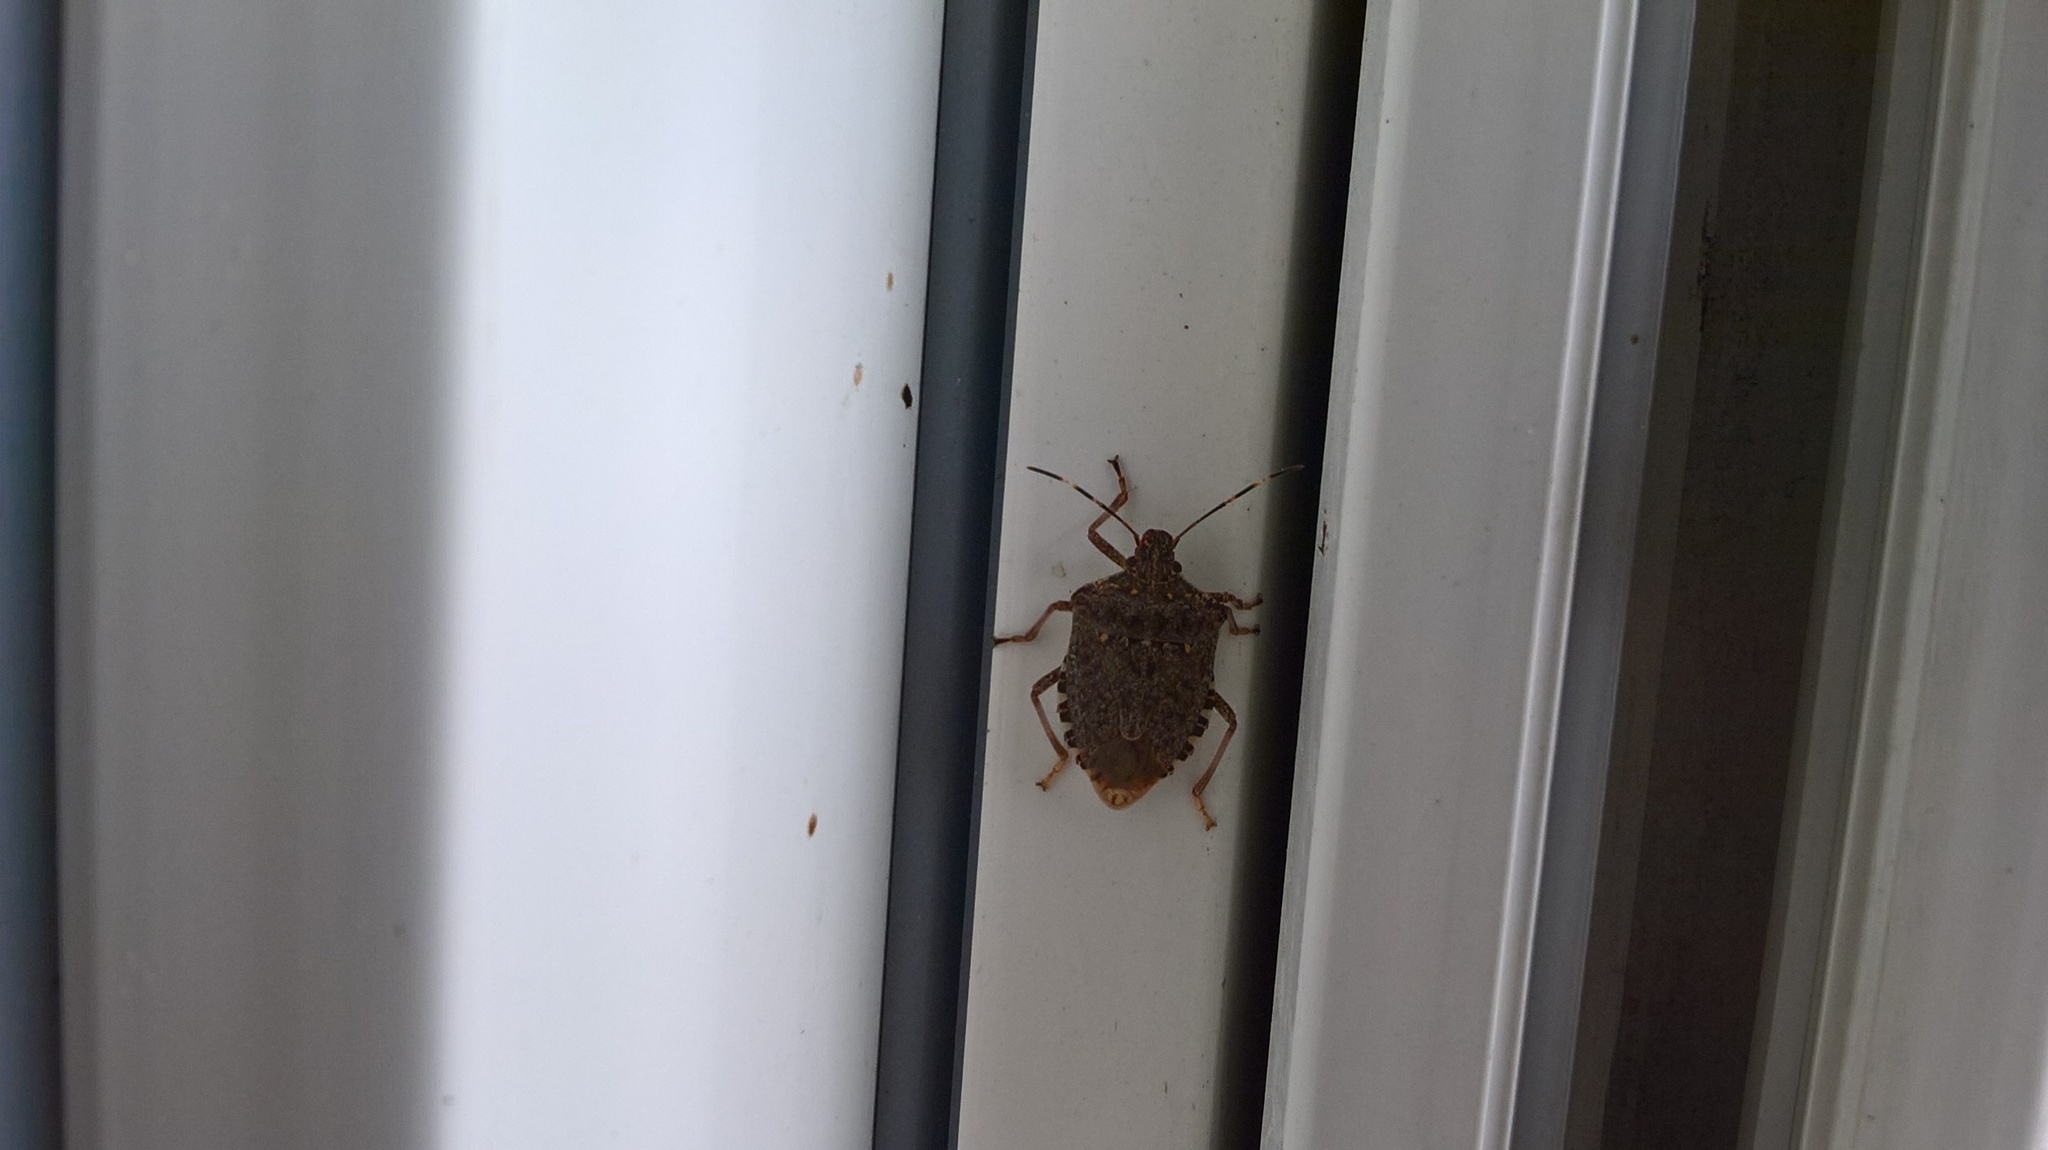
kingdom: Animalia
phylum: Arthropoda
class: Insecta
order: Hemiptera
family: Pentatomidae
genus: Halyomorpha
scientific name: Halyomorpha halys
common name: Brown marmorated stink bug
